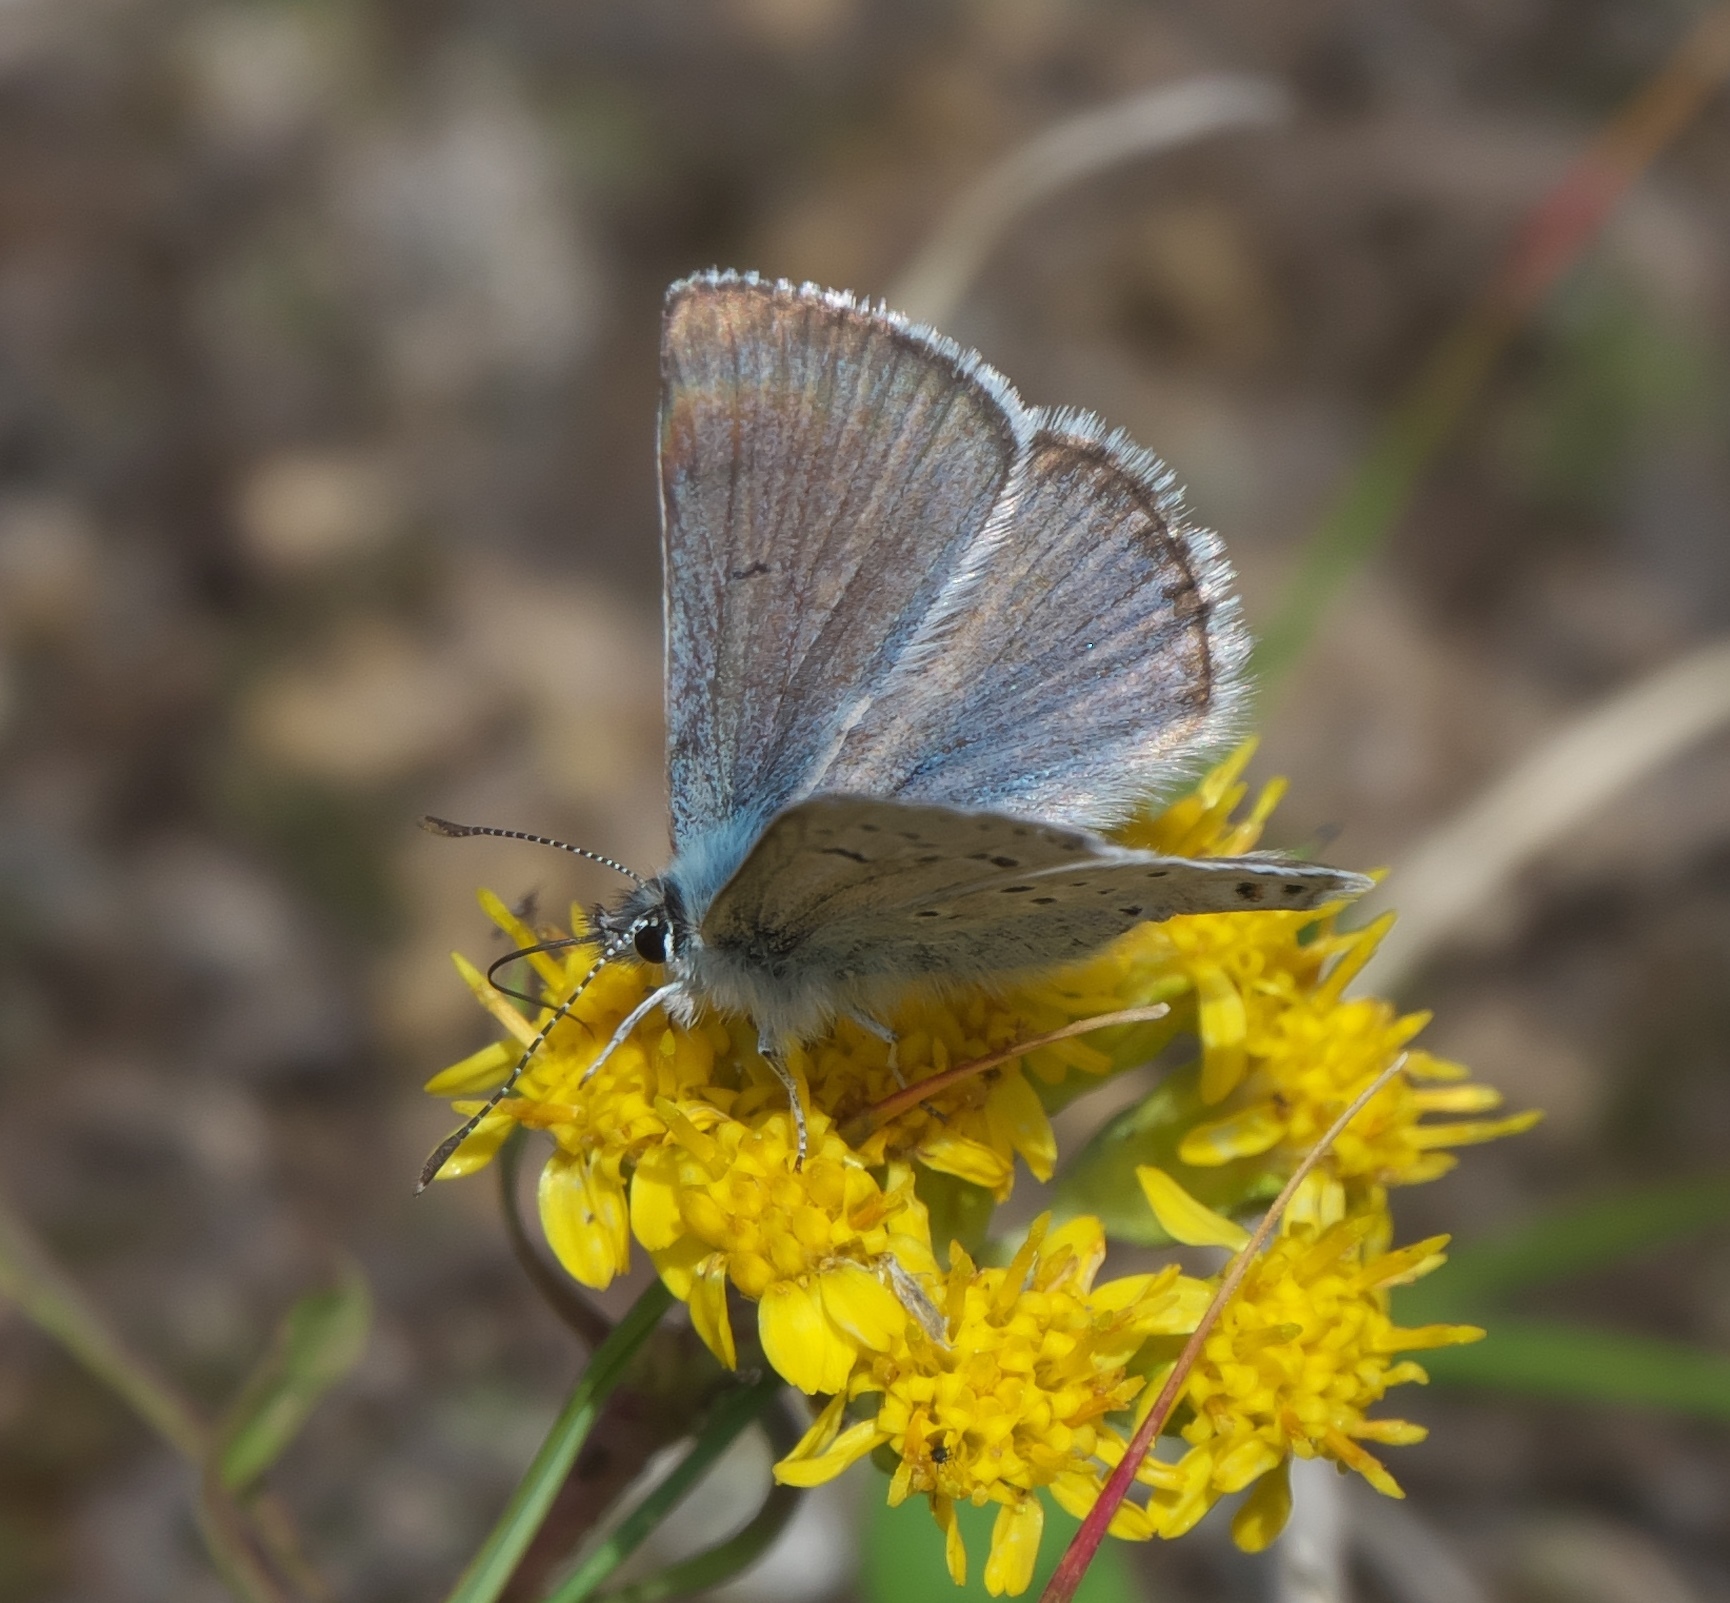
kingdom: Animalia
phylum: Arthropoda
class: Insecta
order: Lepidoptera
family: Lycaenidae
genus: Icaricia
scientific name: Icaricia saepiolus
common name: Greenish blue
